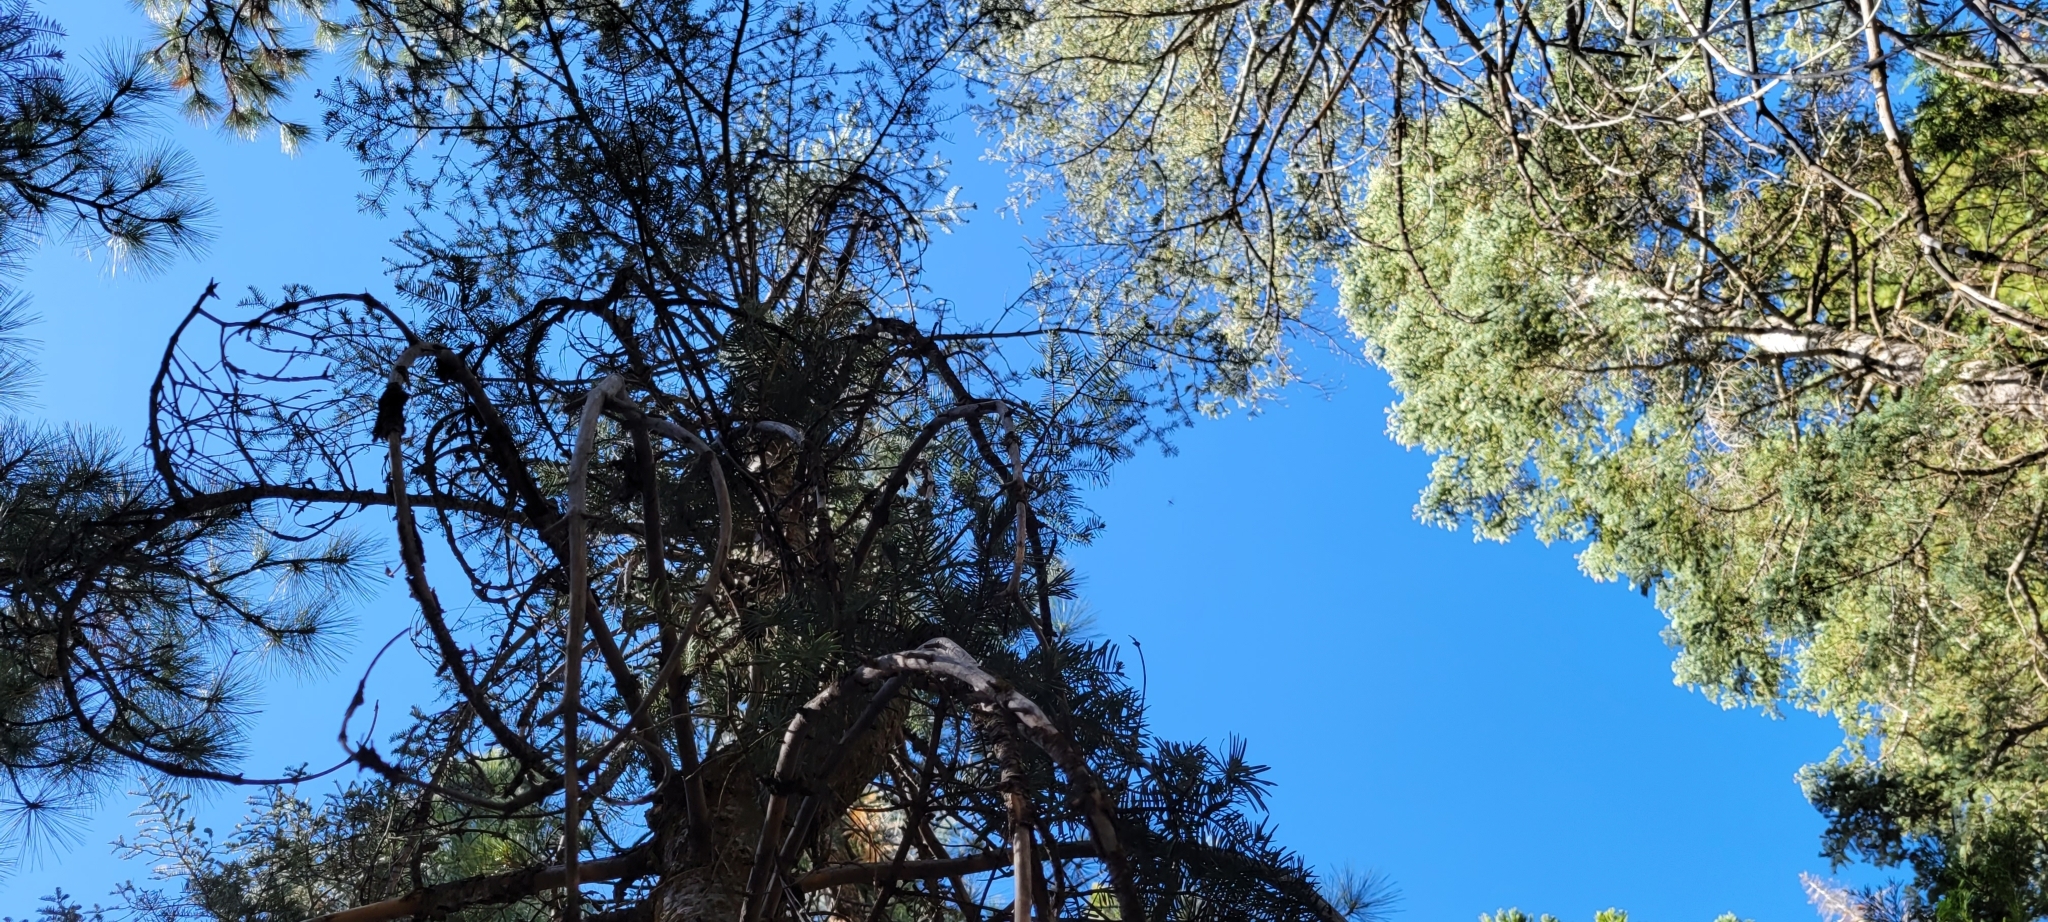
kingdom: Plantae
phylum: Tracheophyta
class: Pinopsida
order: Pinales
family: Pinaceae
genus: Abies
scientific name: Abies concolor
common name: Colorado fir
